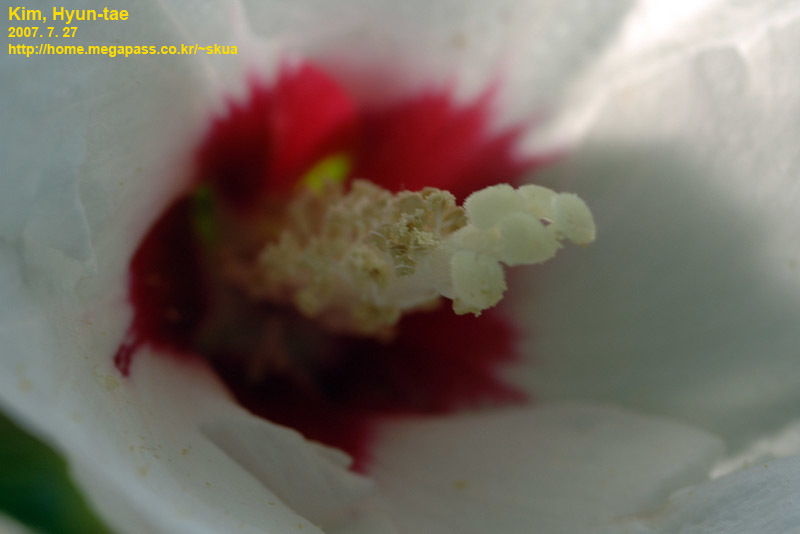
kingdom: Plantae
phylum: Tracheophyta
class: Magnoliopsida
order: Malvales
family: Malvaceae
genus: Hibiscus
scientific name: Hibiscus syriacus
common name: Syrian ketmia
